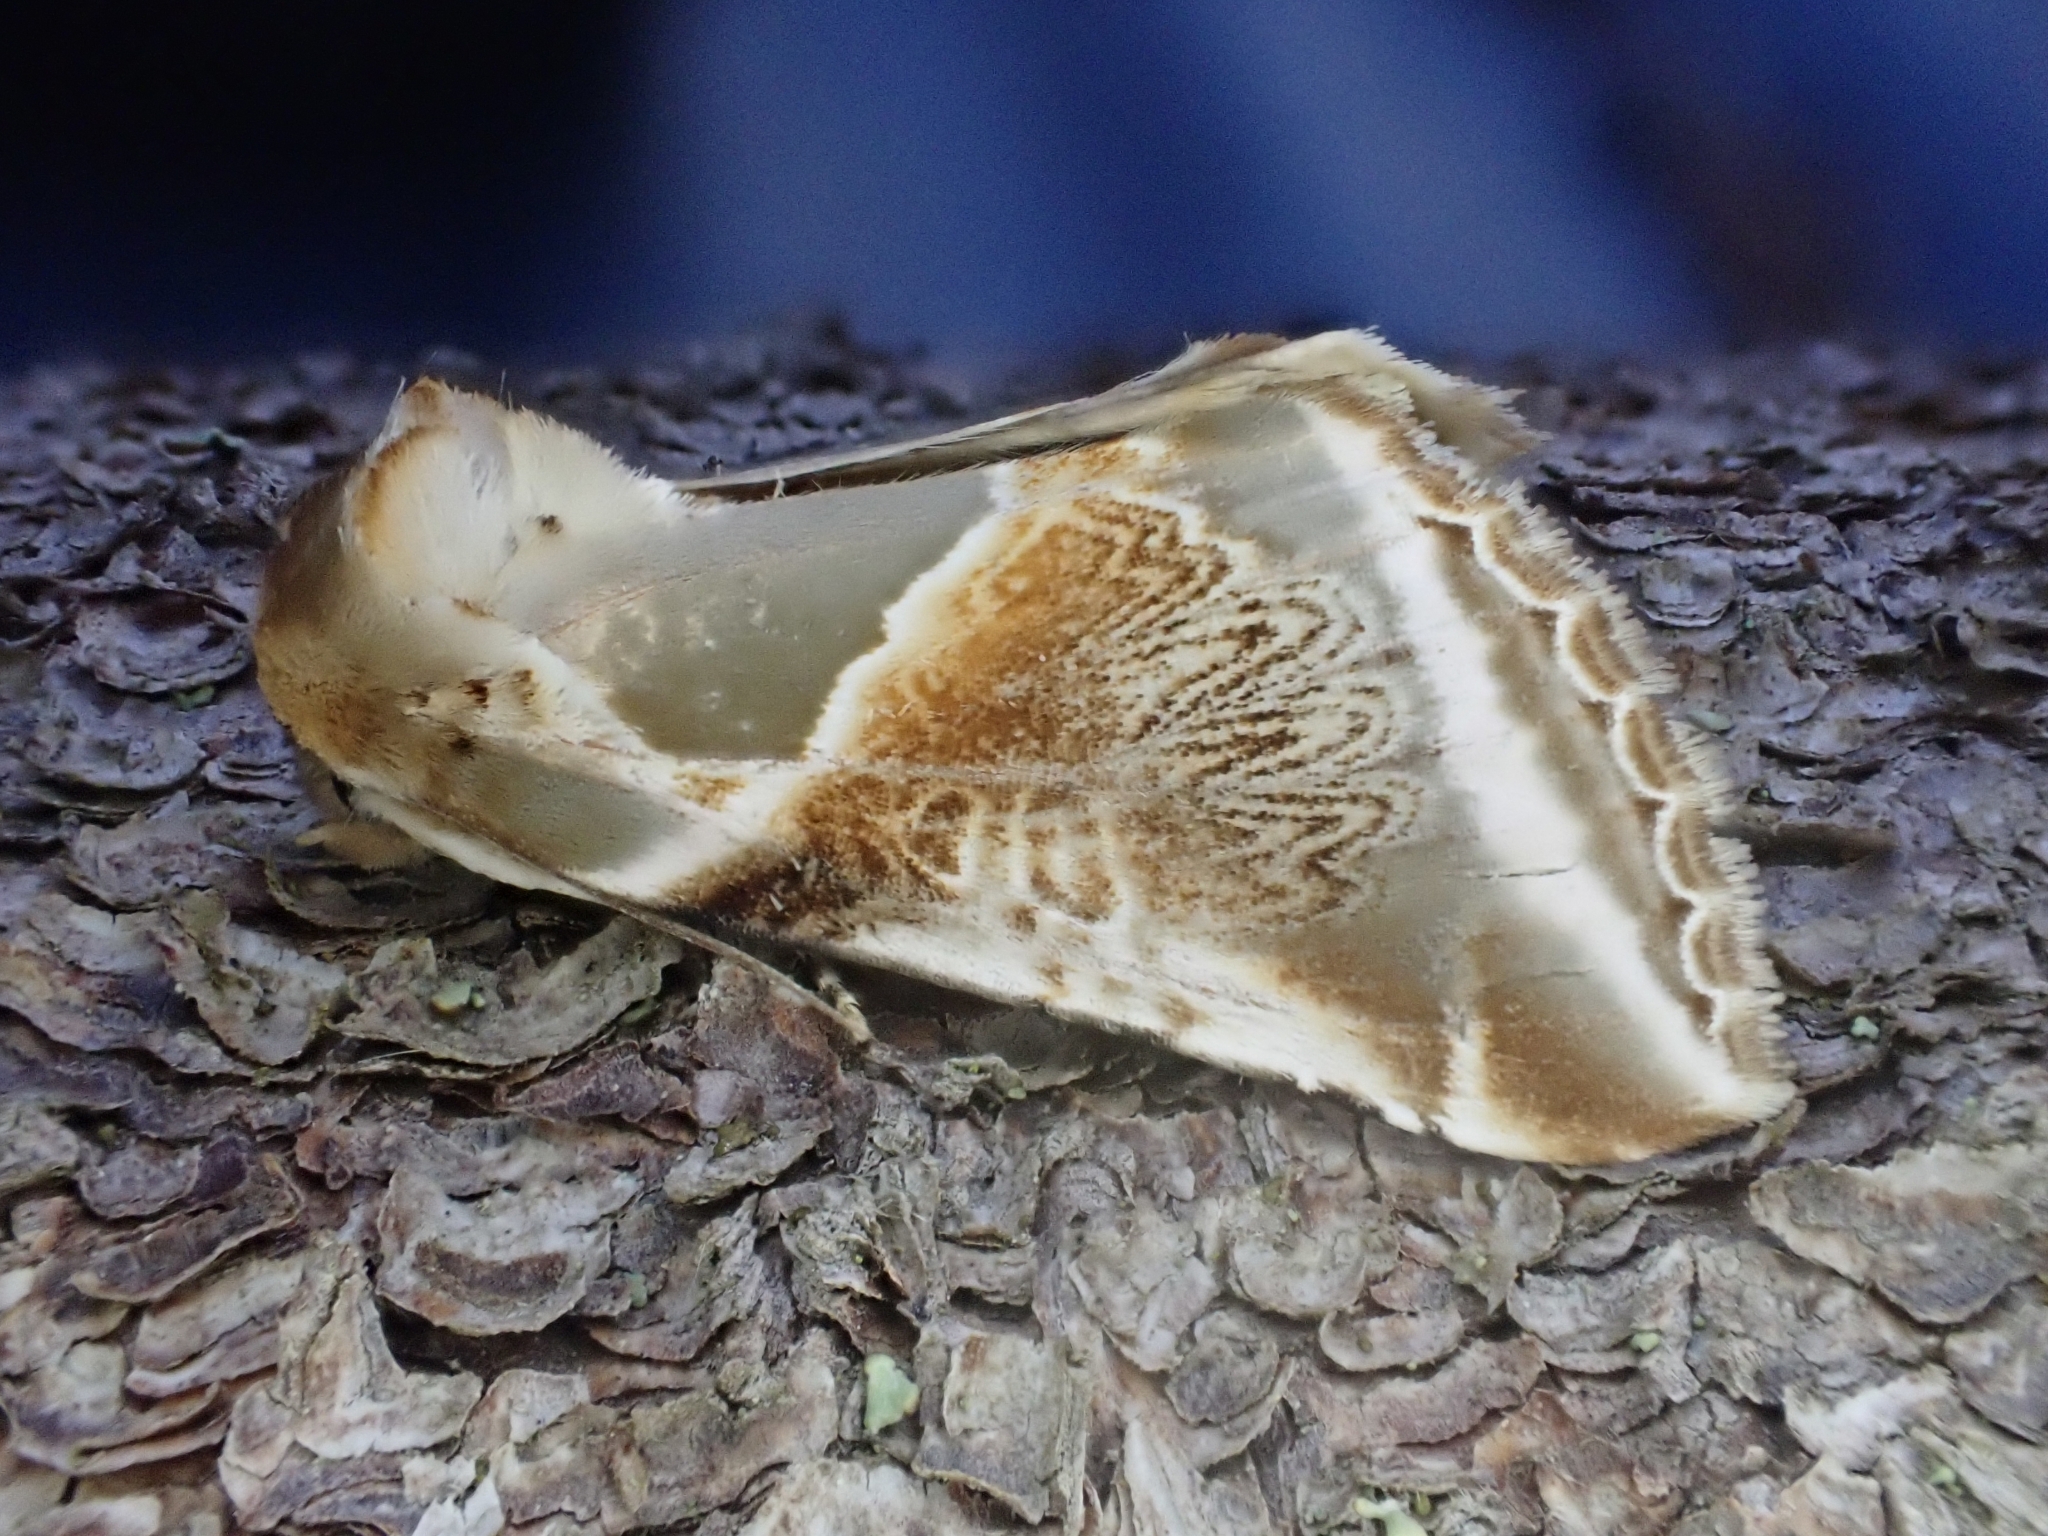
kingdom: Animalia
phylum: Arthropoda
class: Insecta
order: Lepidoptera
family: Drepanidae
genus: Habrosyne
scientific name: Habrosyne pyritoides
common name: Buff arches
